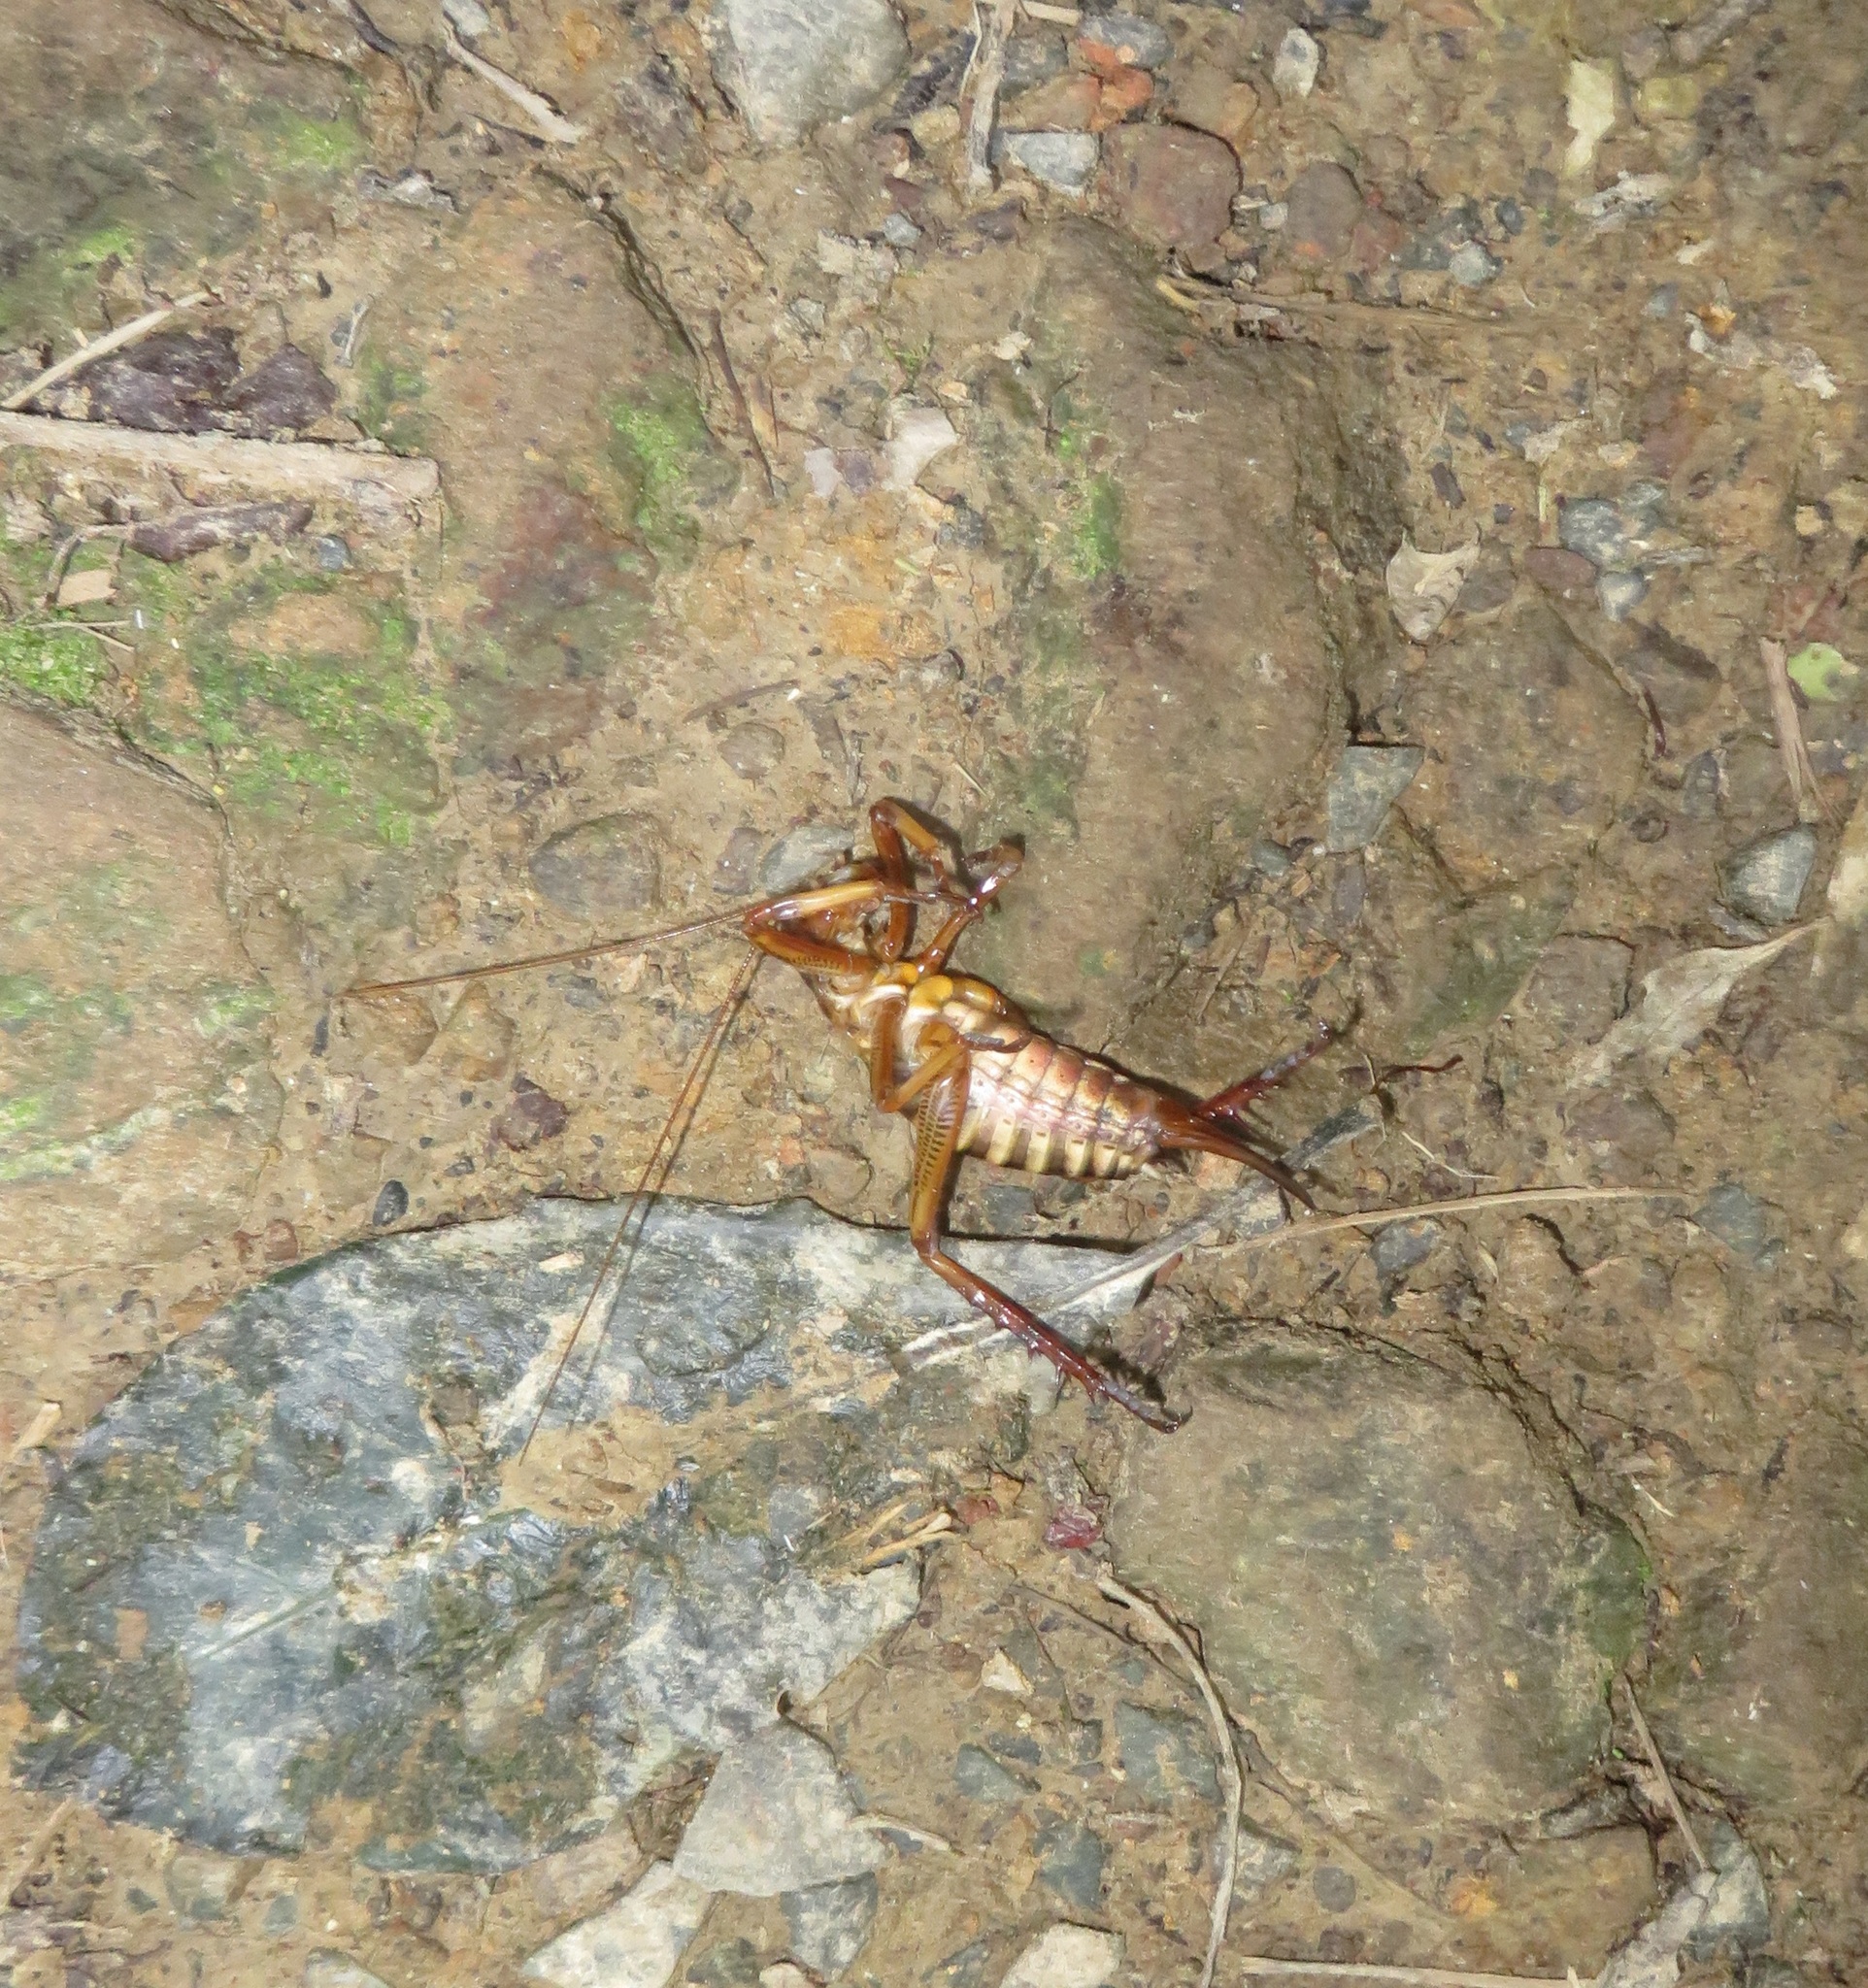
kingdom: Animalia
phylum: Arthropoda
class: Insecta
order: Orthoptera
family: Anostostomatidae
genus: Hemideina
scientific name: Hemideina crassidens
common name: Wellington tree weta
